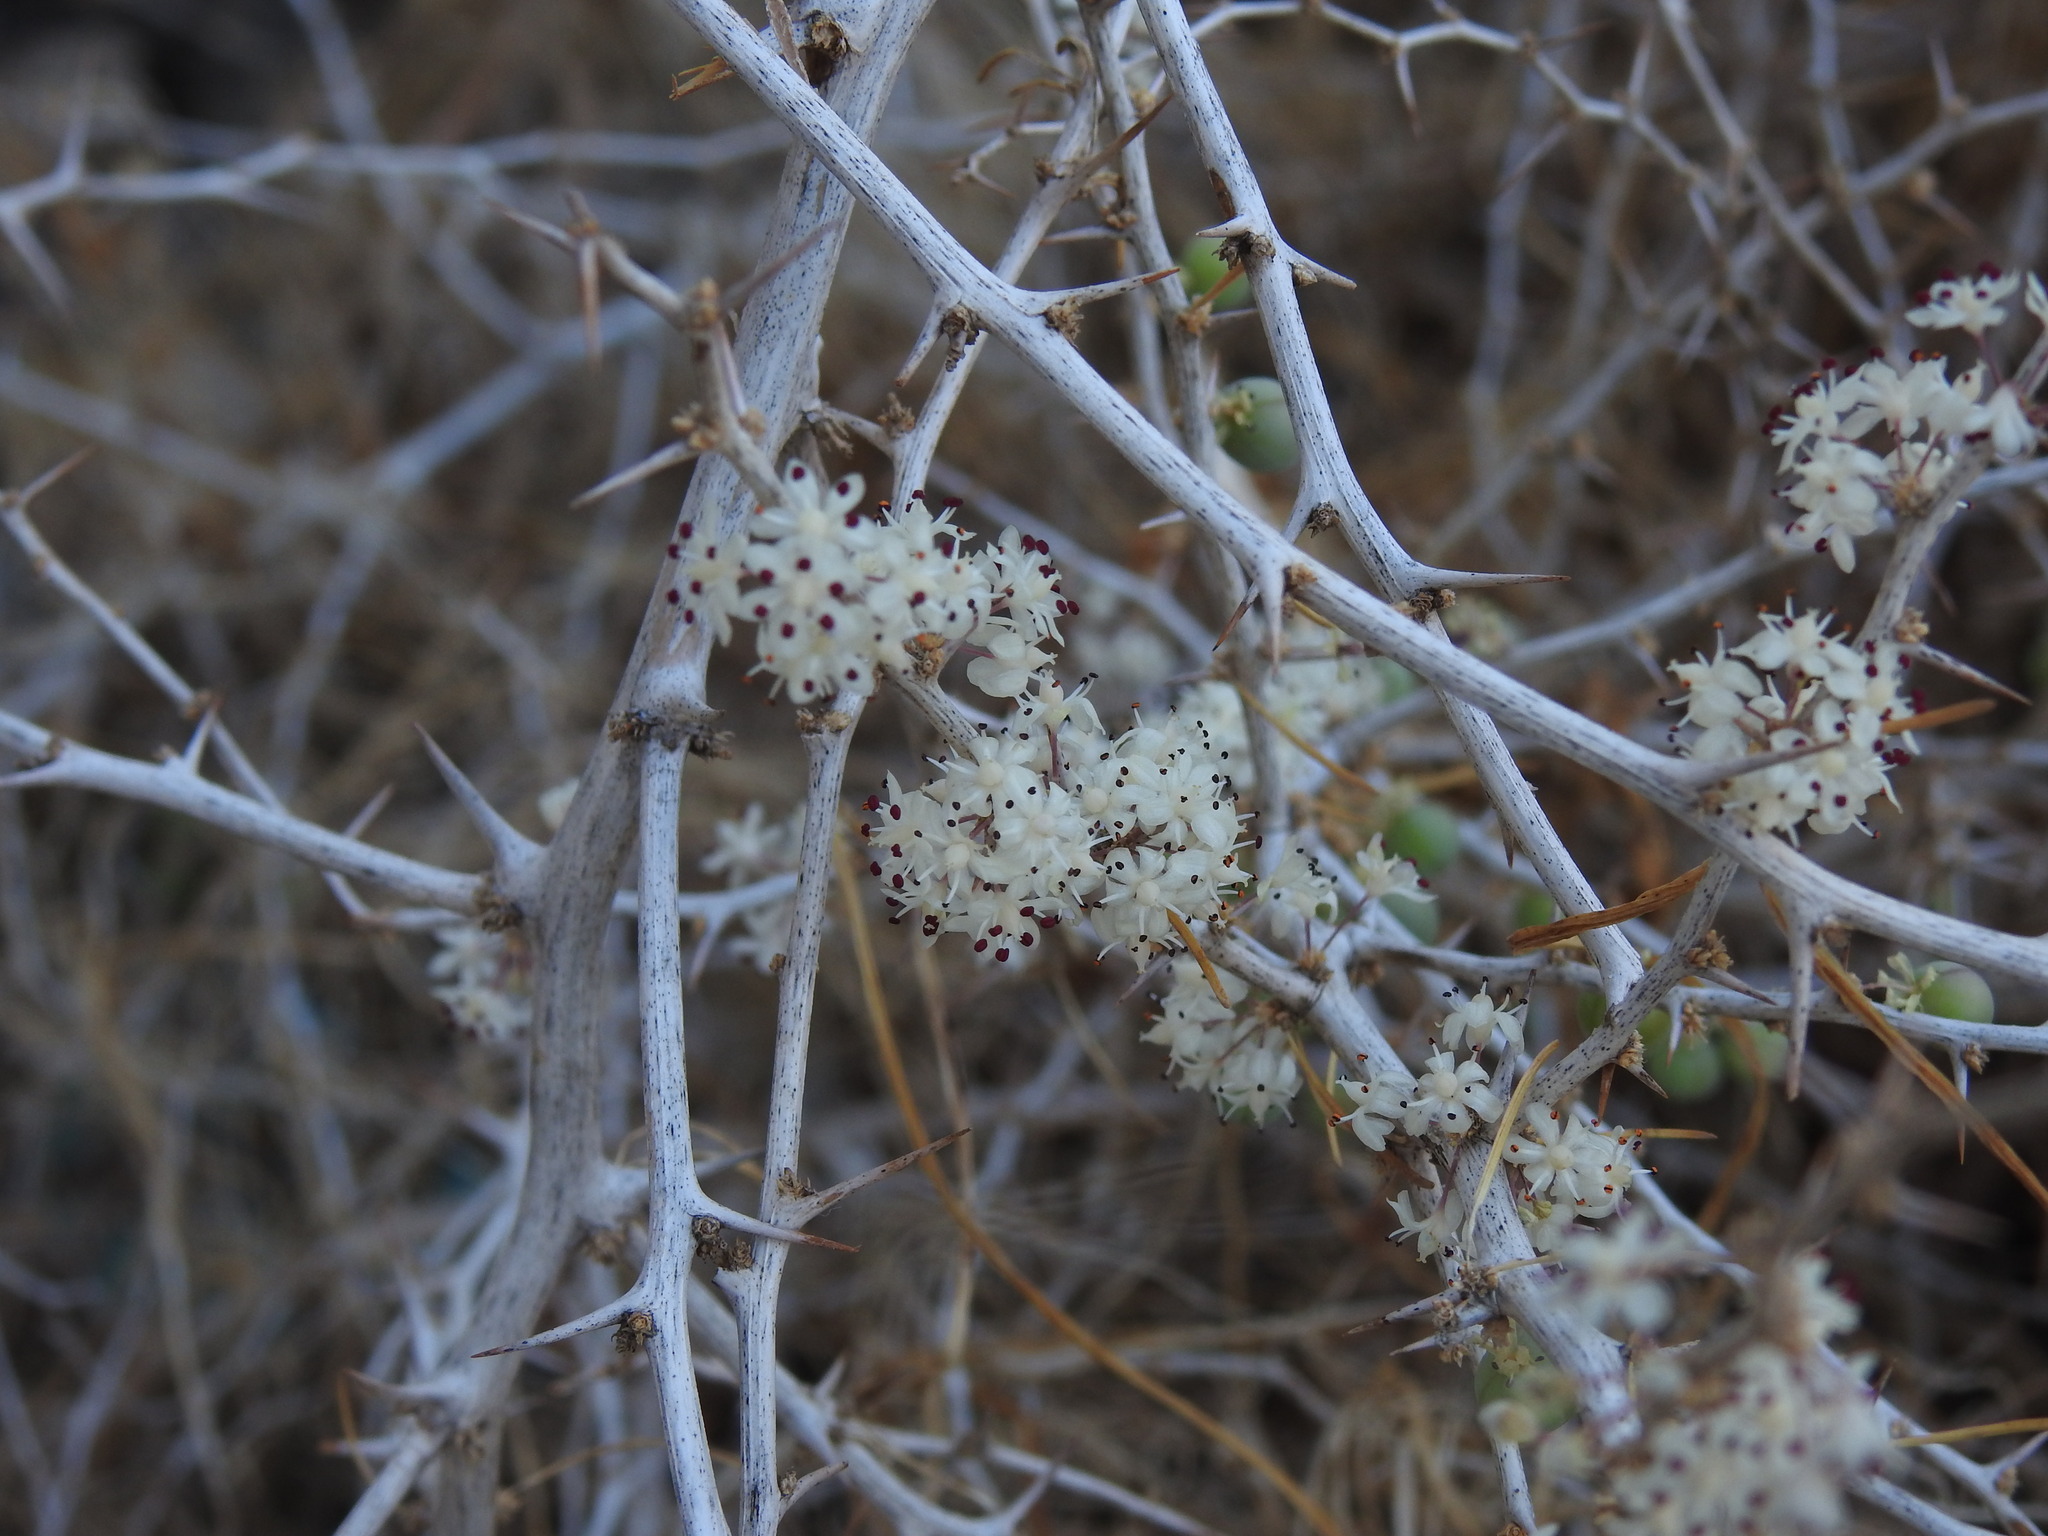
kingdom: Plantae
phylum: Tracheophyta
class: Liliopsida
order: Asparagales
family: Asparagaceae
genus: Asparagus
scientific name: Asparagus albus
